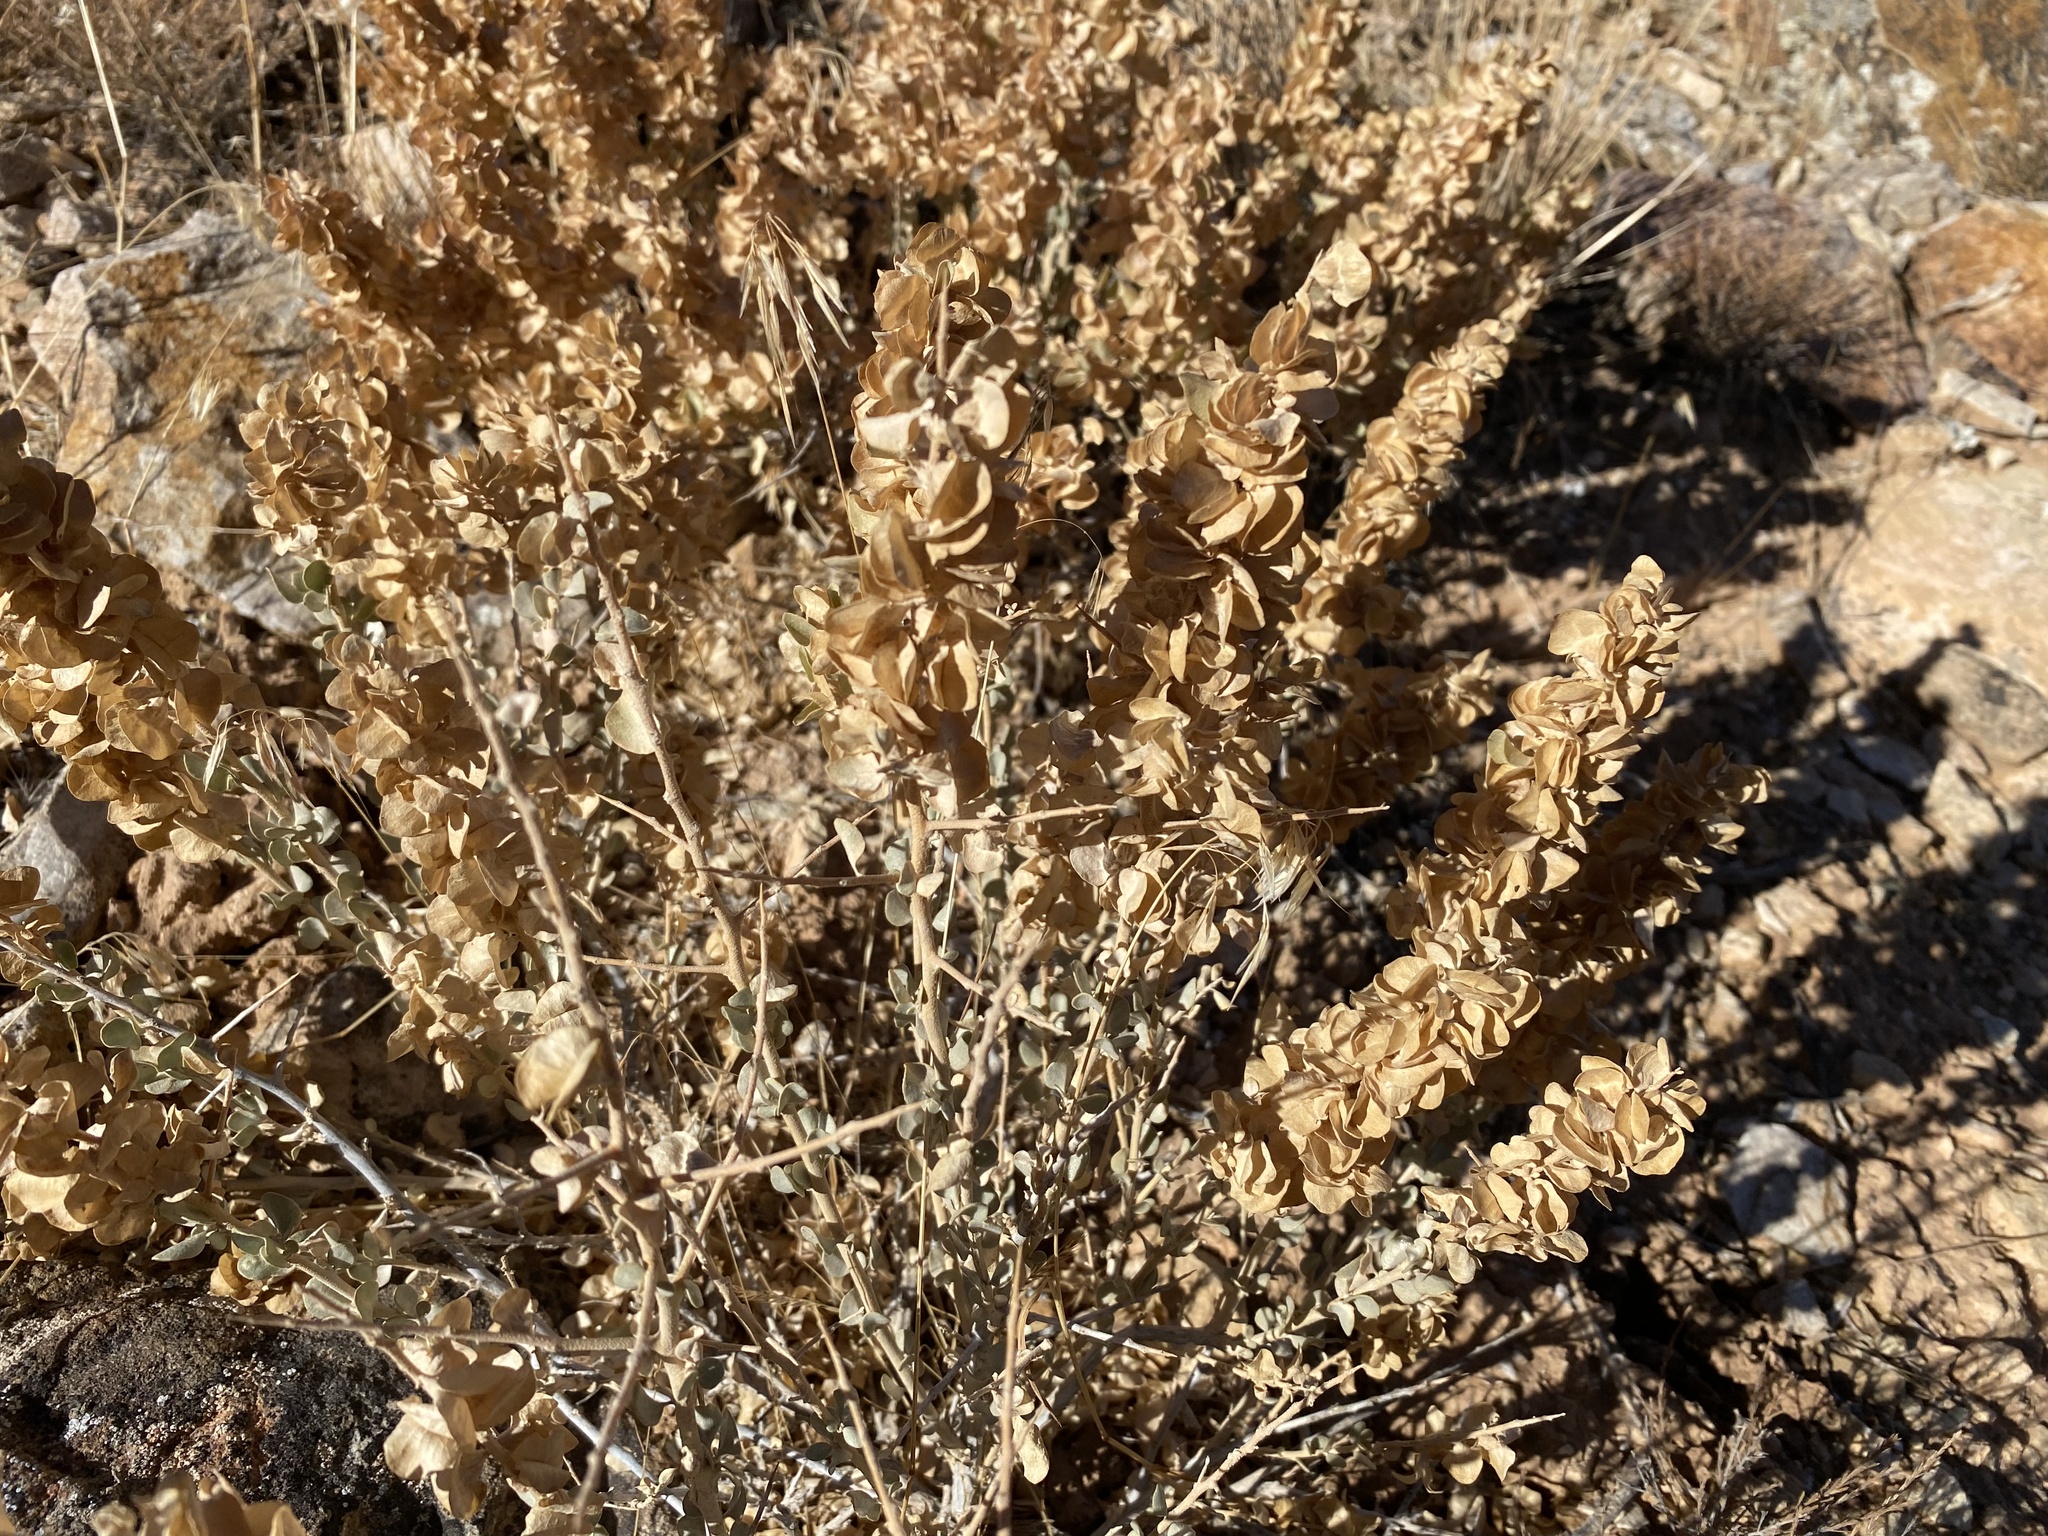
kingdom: Plantae
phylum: Tracheophyta
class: Magnoliopsida
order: Caryophyllales
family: Amaranthaceae
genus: Atriplex
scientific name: Atriplex confertifolia
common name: Shadscale
